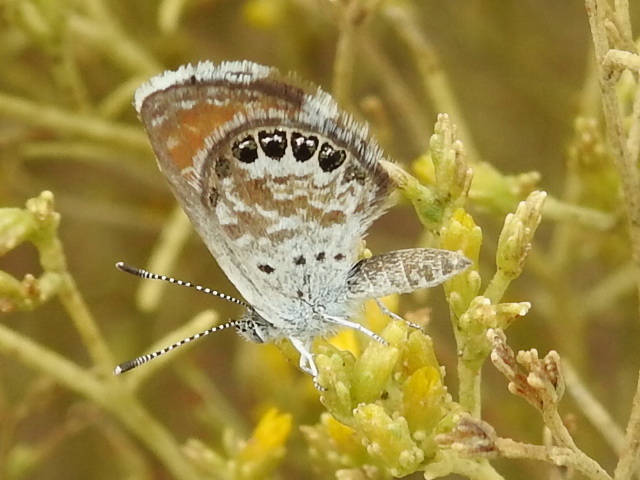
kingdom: Animalia
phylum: Arthropoda
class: Insecta
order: Lepidoptera
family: Lycaenidae
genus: Brephidium
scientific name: Brephidium exilis
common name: Pygmy blue
